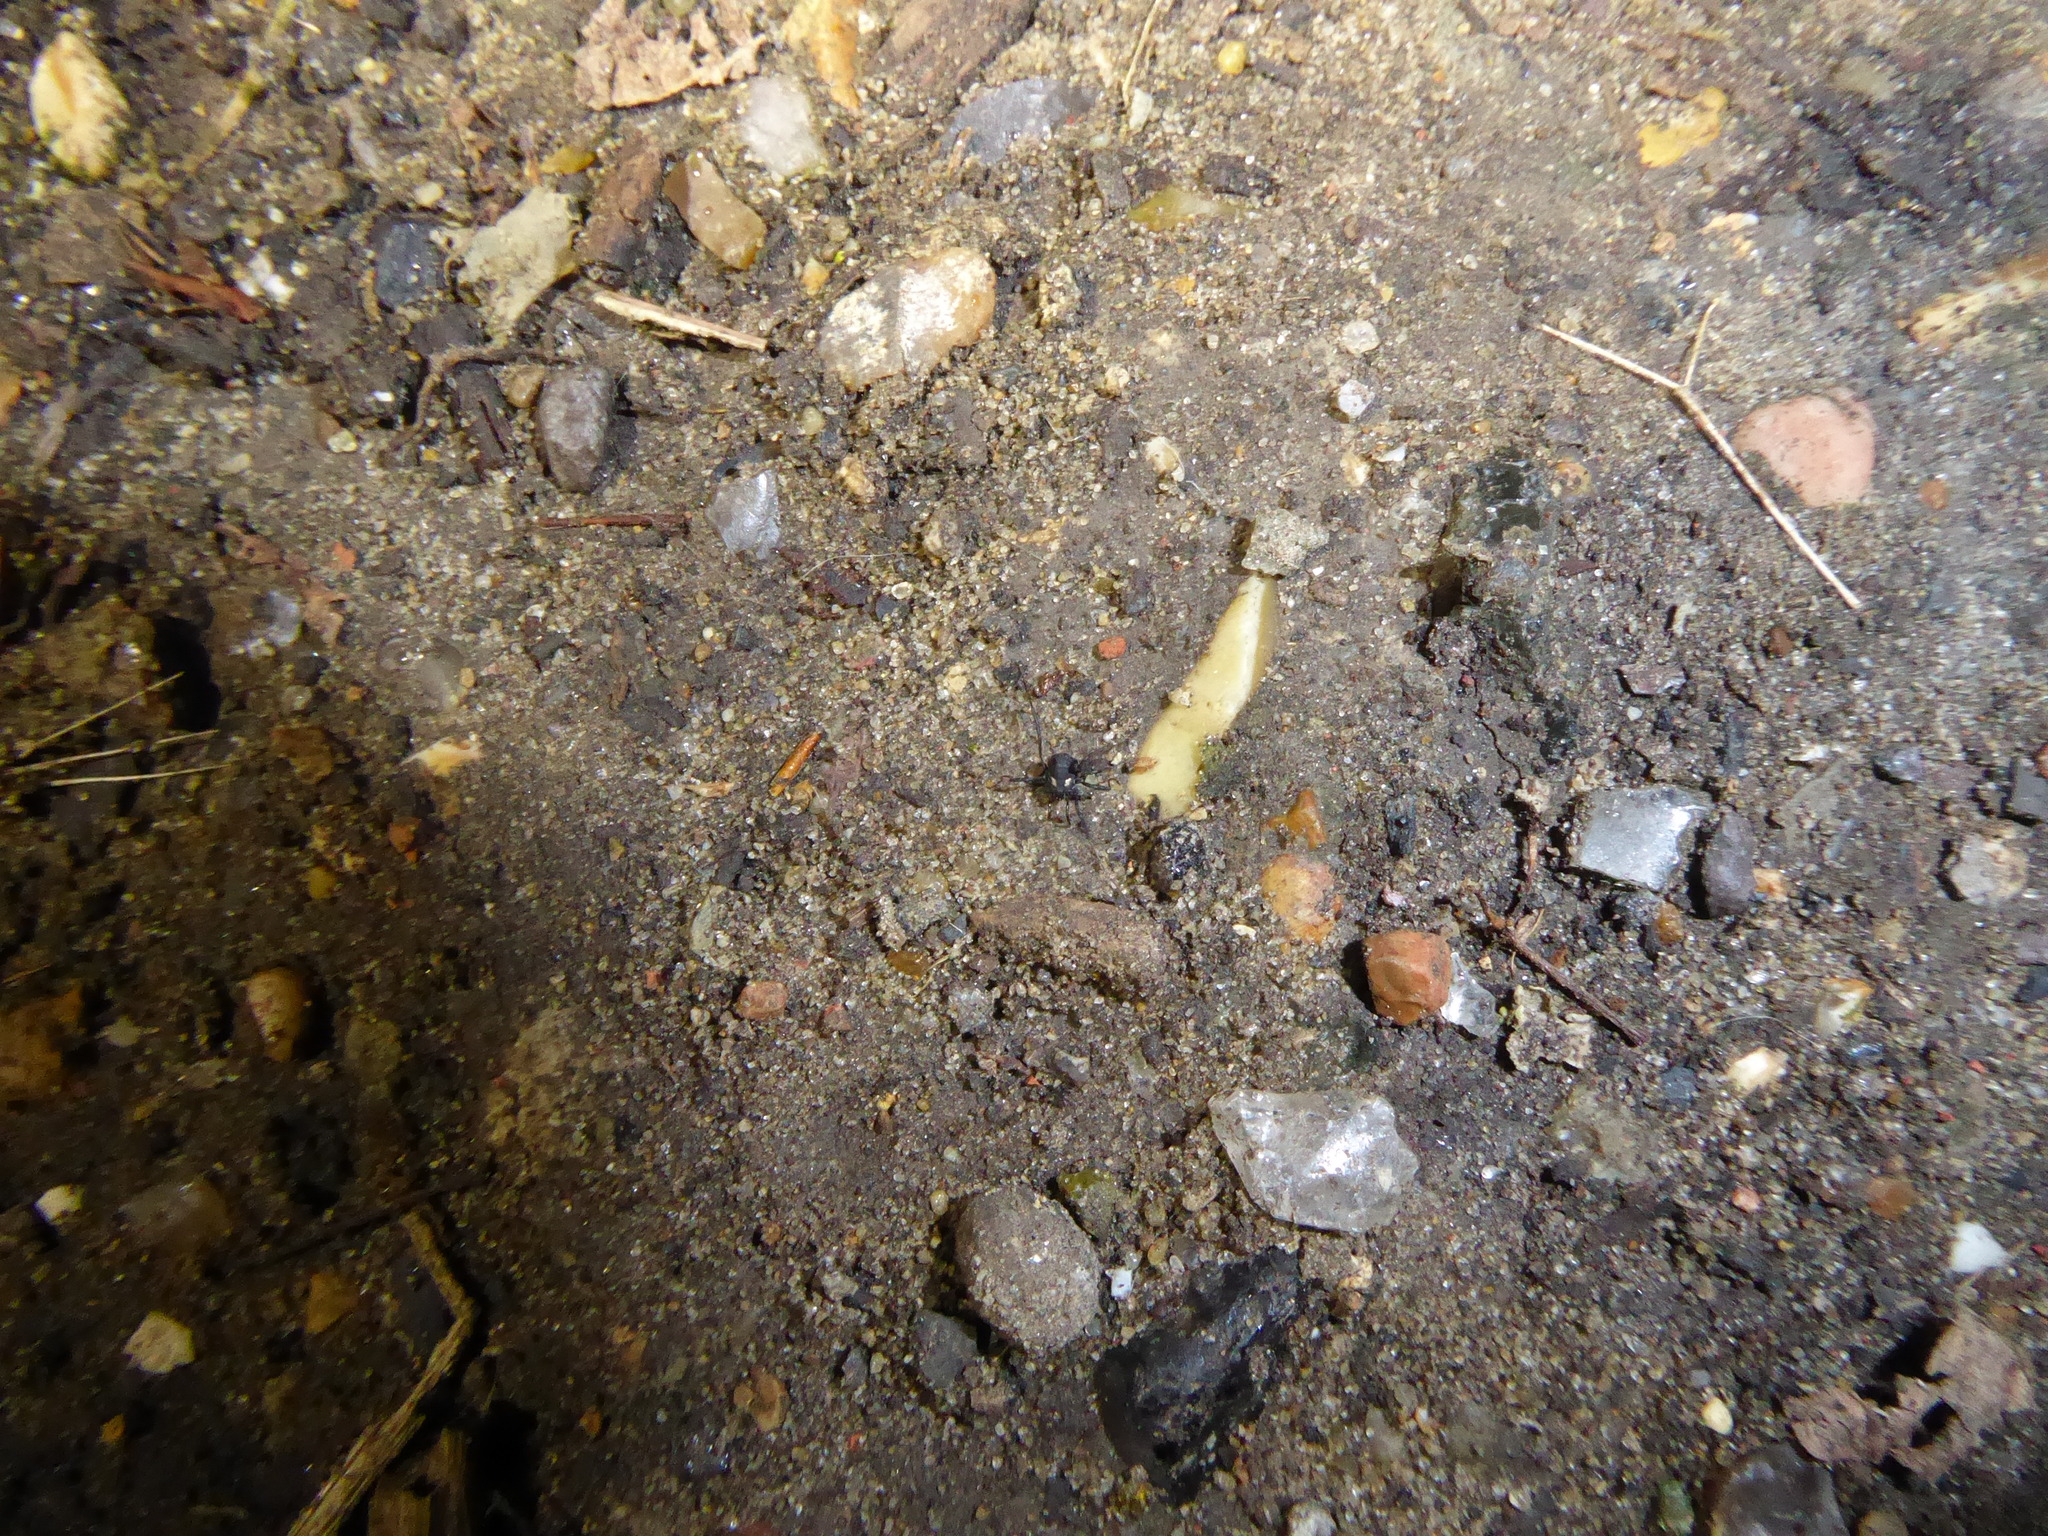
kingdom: Animalia
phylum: Arthropoda
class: Arachnida
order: Opiliones
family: Nemastomatidae
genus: Nemastoma
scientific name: Nemastoma bimaculatum
